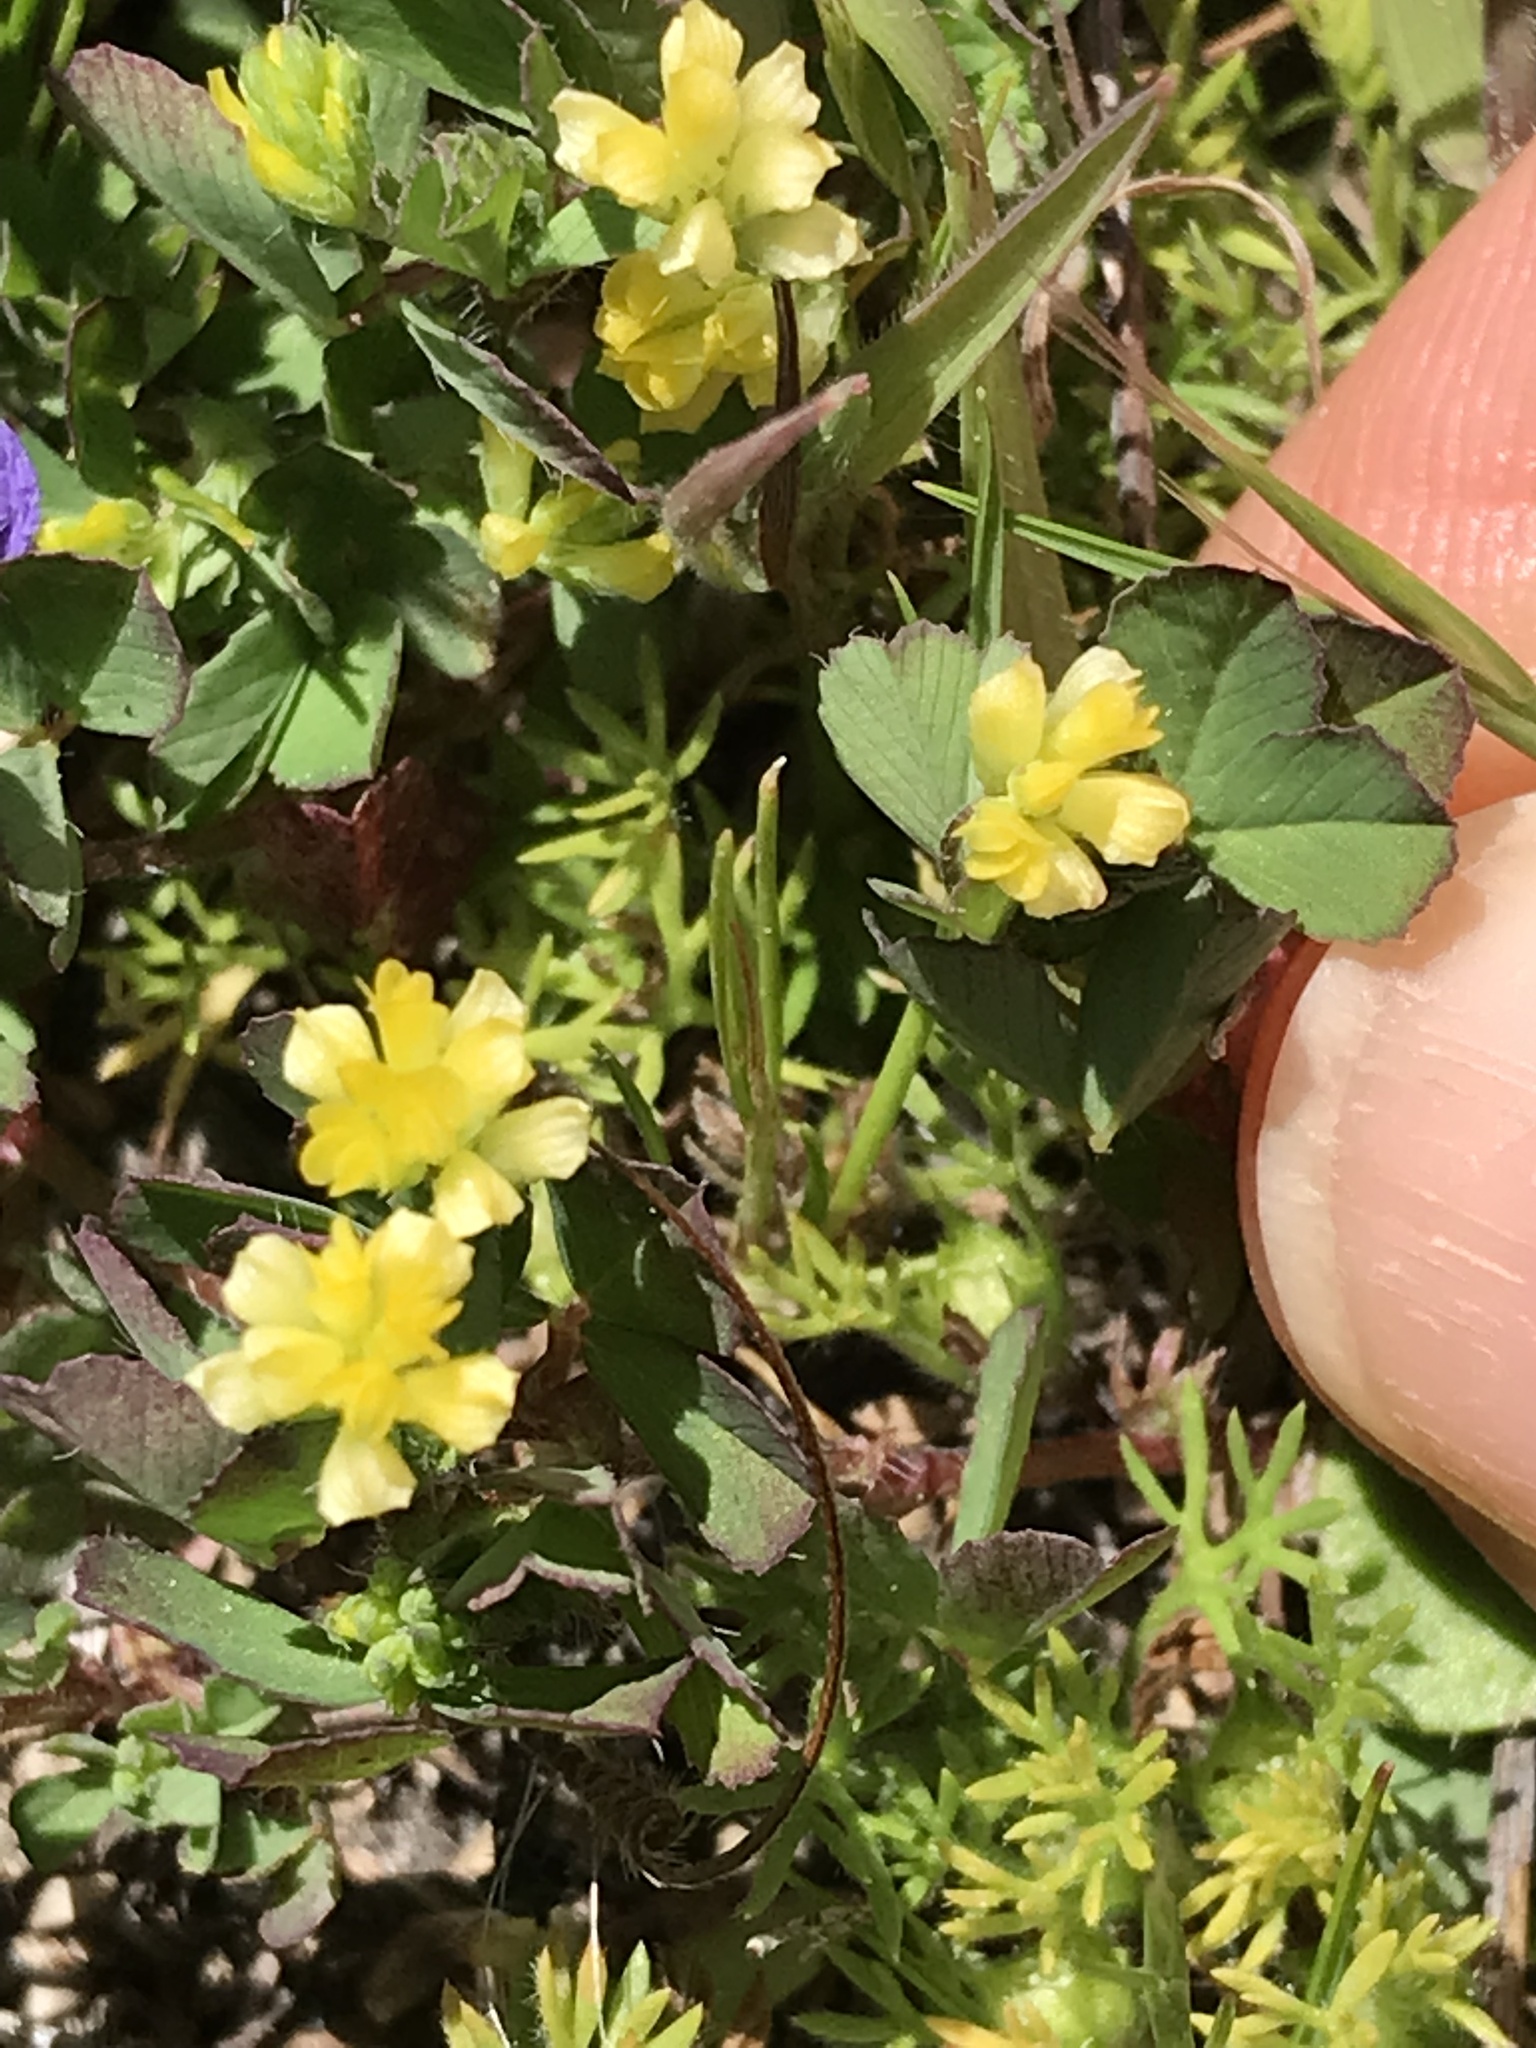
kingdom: Plantae
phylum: Tracheophyta
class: Magnoliopsida
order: Fabales
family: Fabaceae
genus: Trifolium
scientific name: Trifolium dubium
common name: Suckling clover
